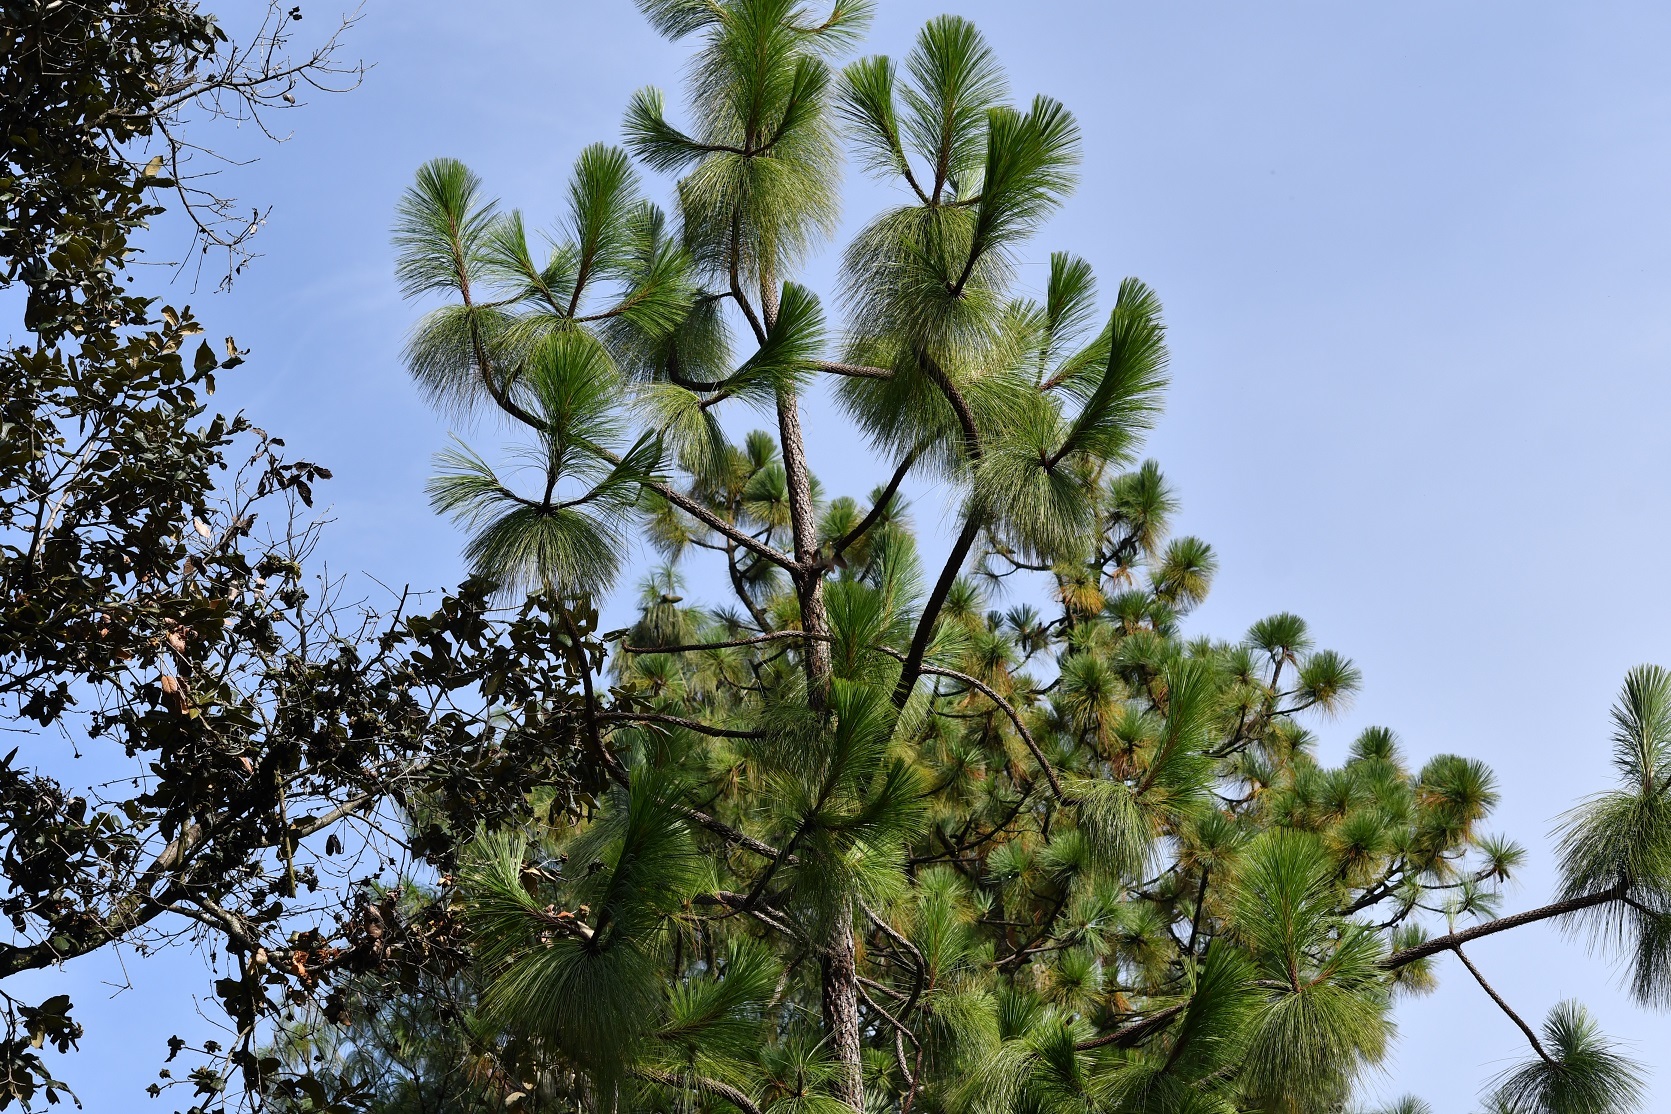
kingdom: Plantae
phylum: Tracheophyta
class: Pinopsida
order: Pinales
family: Pinaceae
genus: Pinus
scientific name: Pinus devoniana
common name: Michoacan pine
